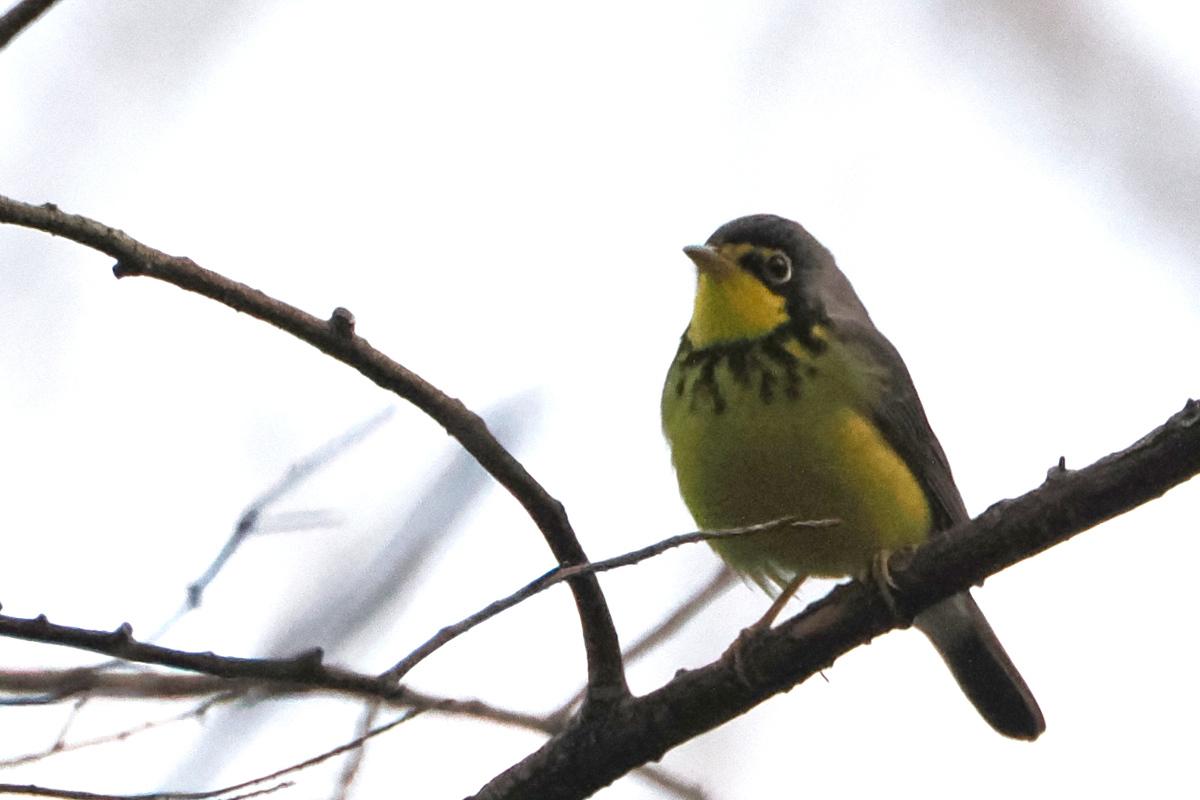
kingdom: Animalia
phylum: Chordata
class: Aves
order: Passeriformes
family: Parulidae
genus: Cardellina
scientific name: Cardellina canadensis
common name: Canada warbler
